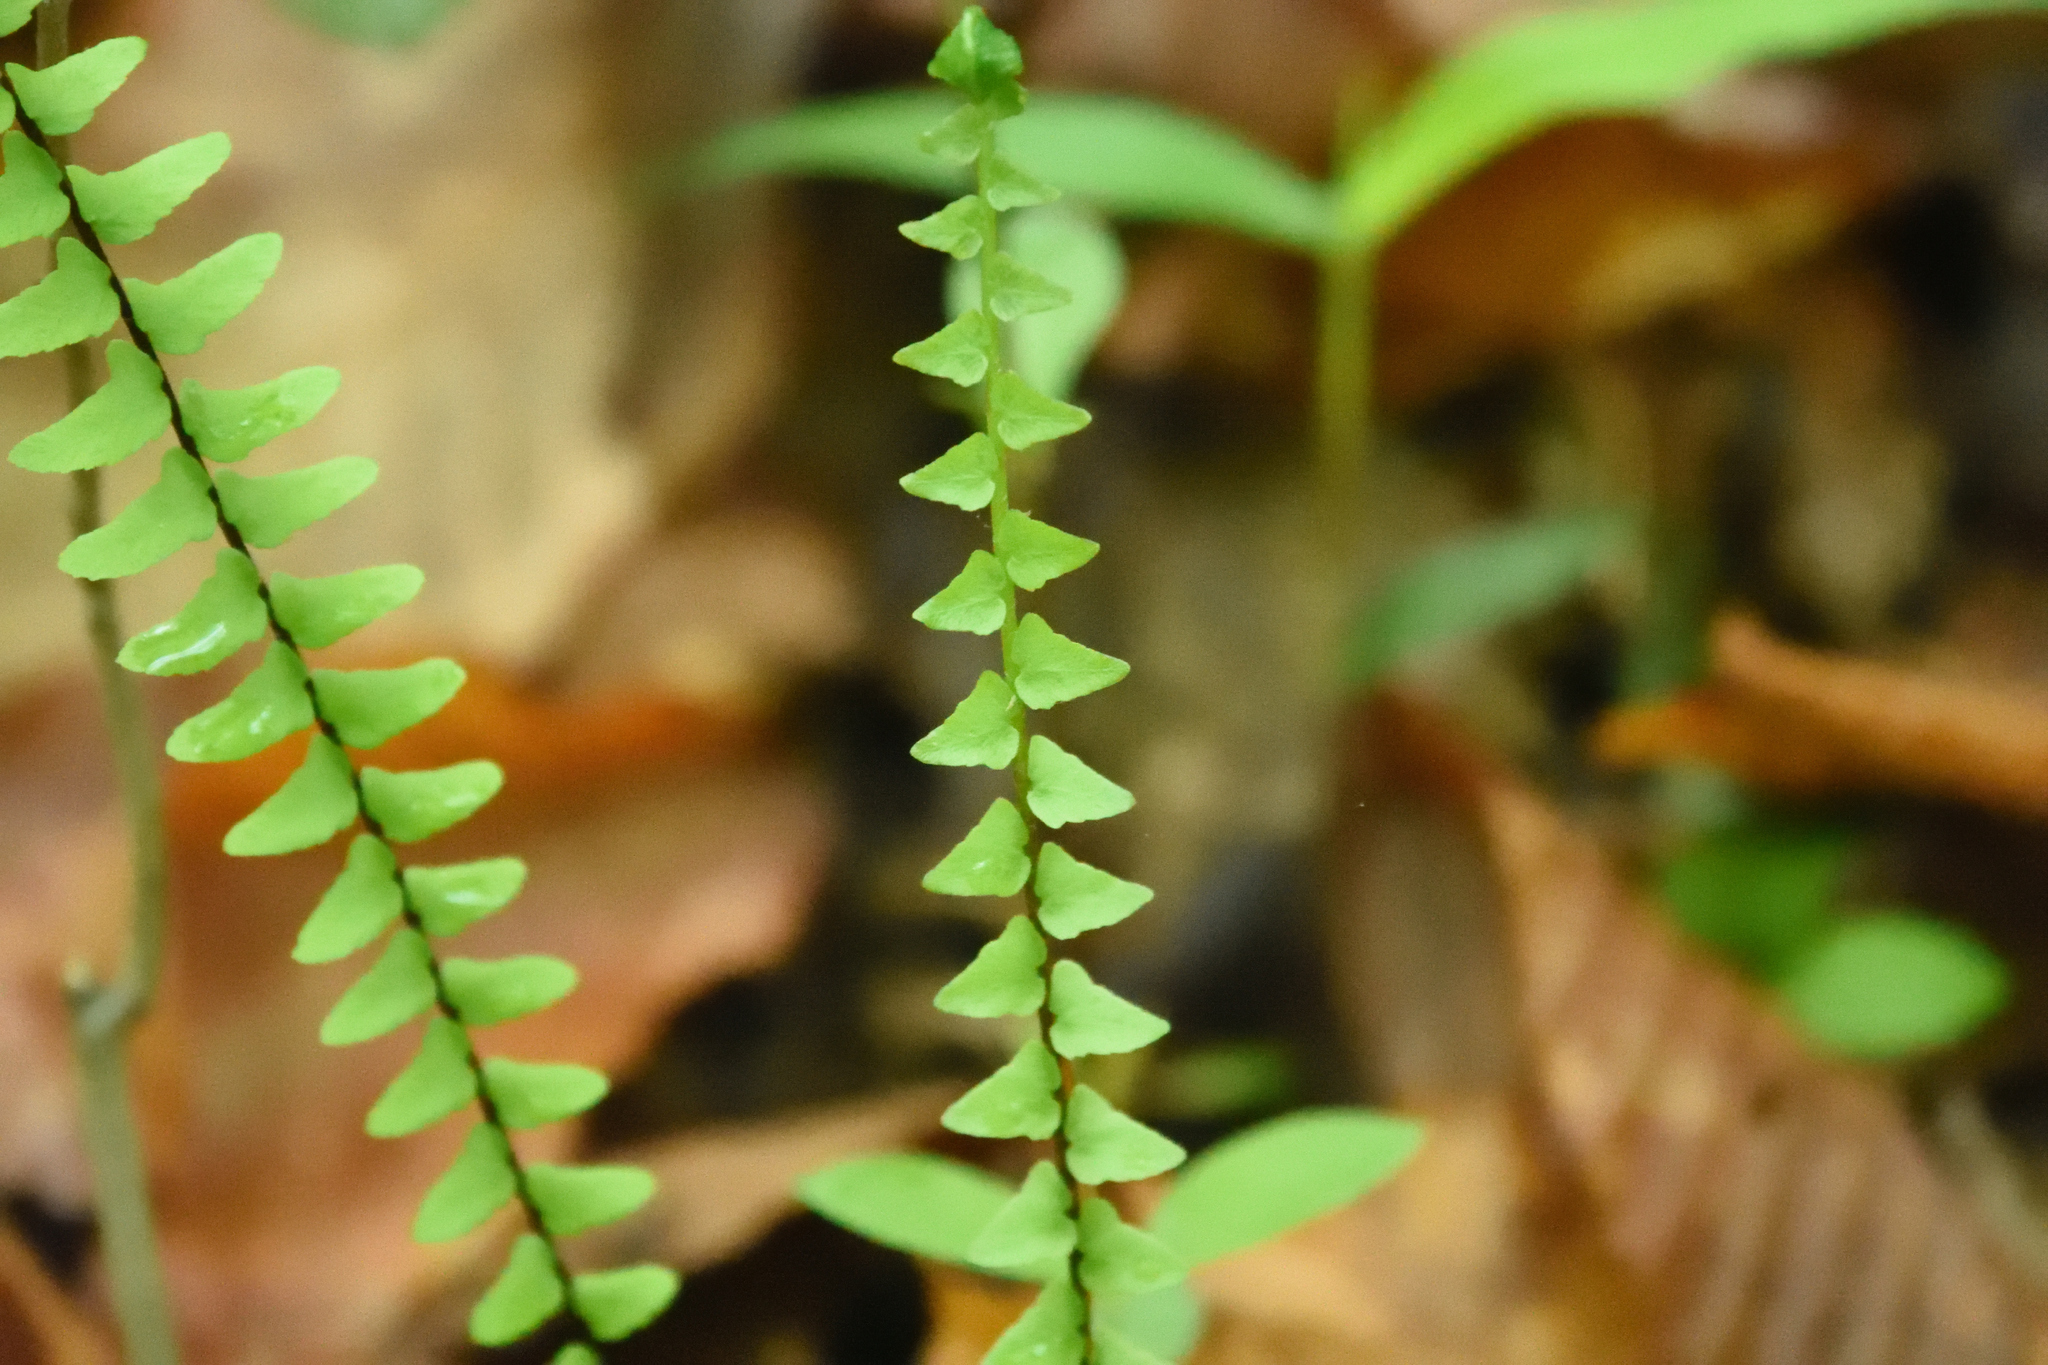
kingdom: Plantae
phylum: Tracheophyta
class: Polypodiopsida
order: Polypodiales
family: Aspleniaceae
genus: Asplenium
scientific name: Asplenium platyneuron
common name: Ebony spleenwort
